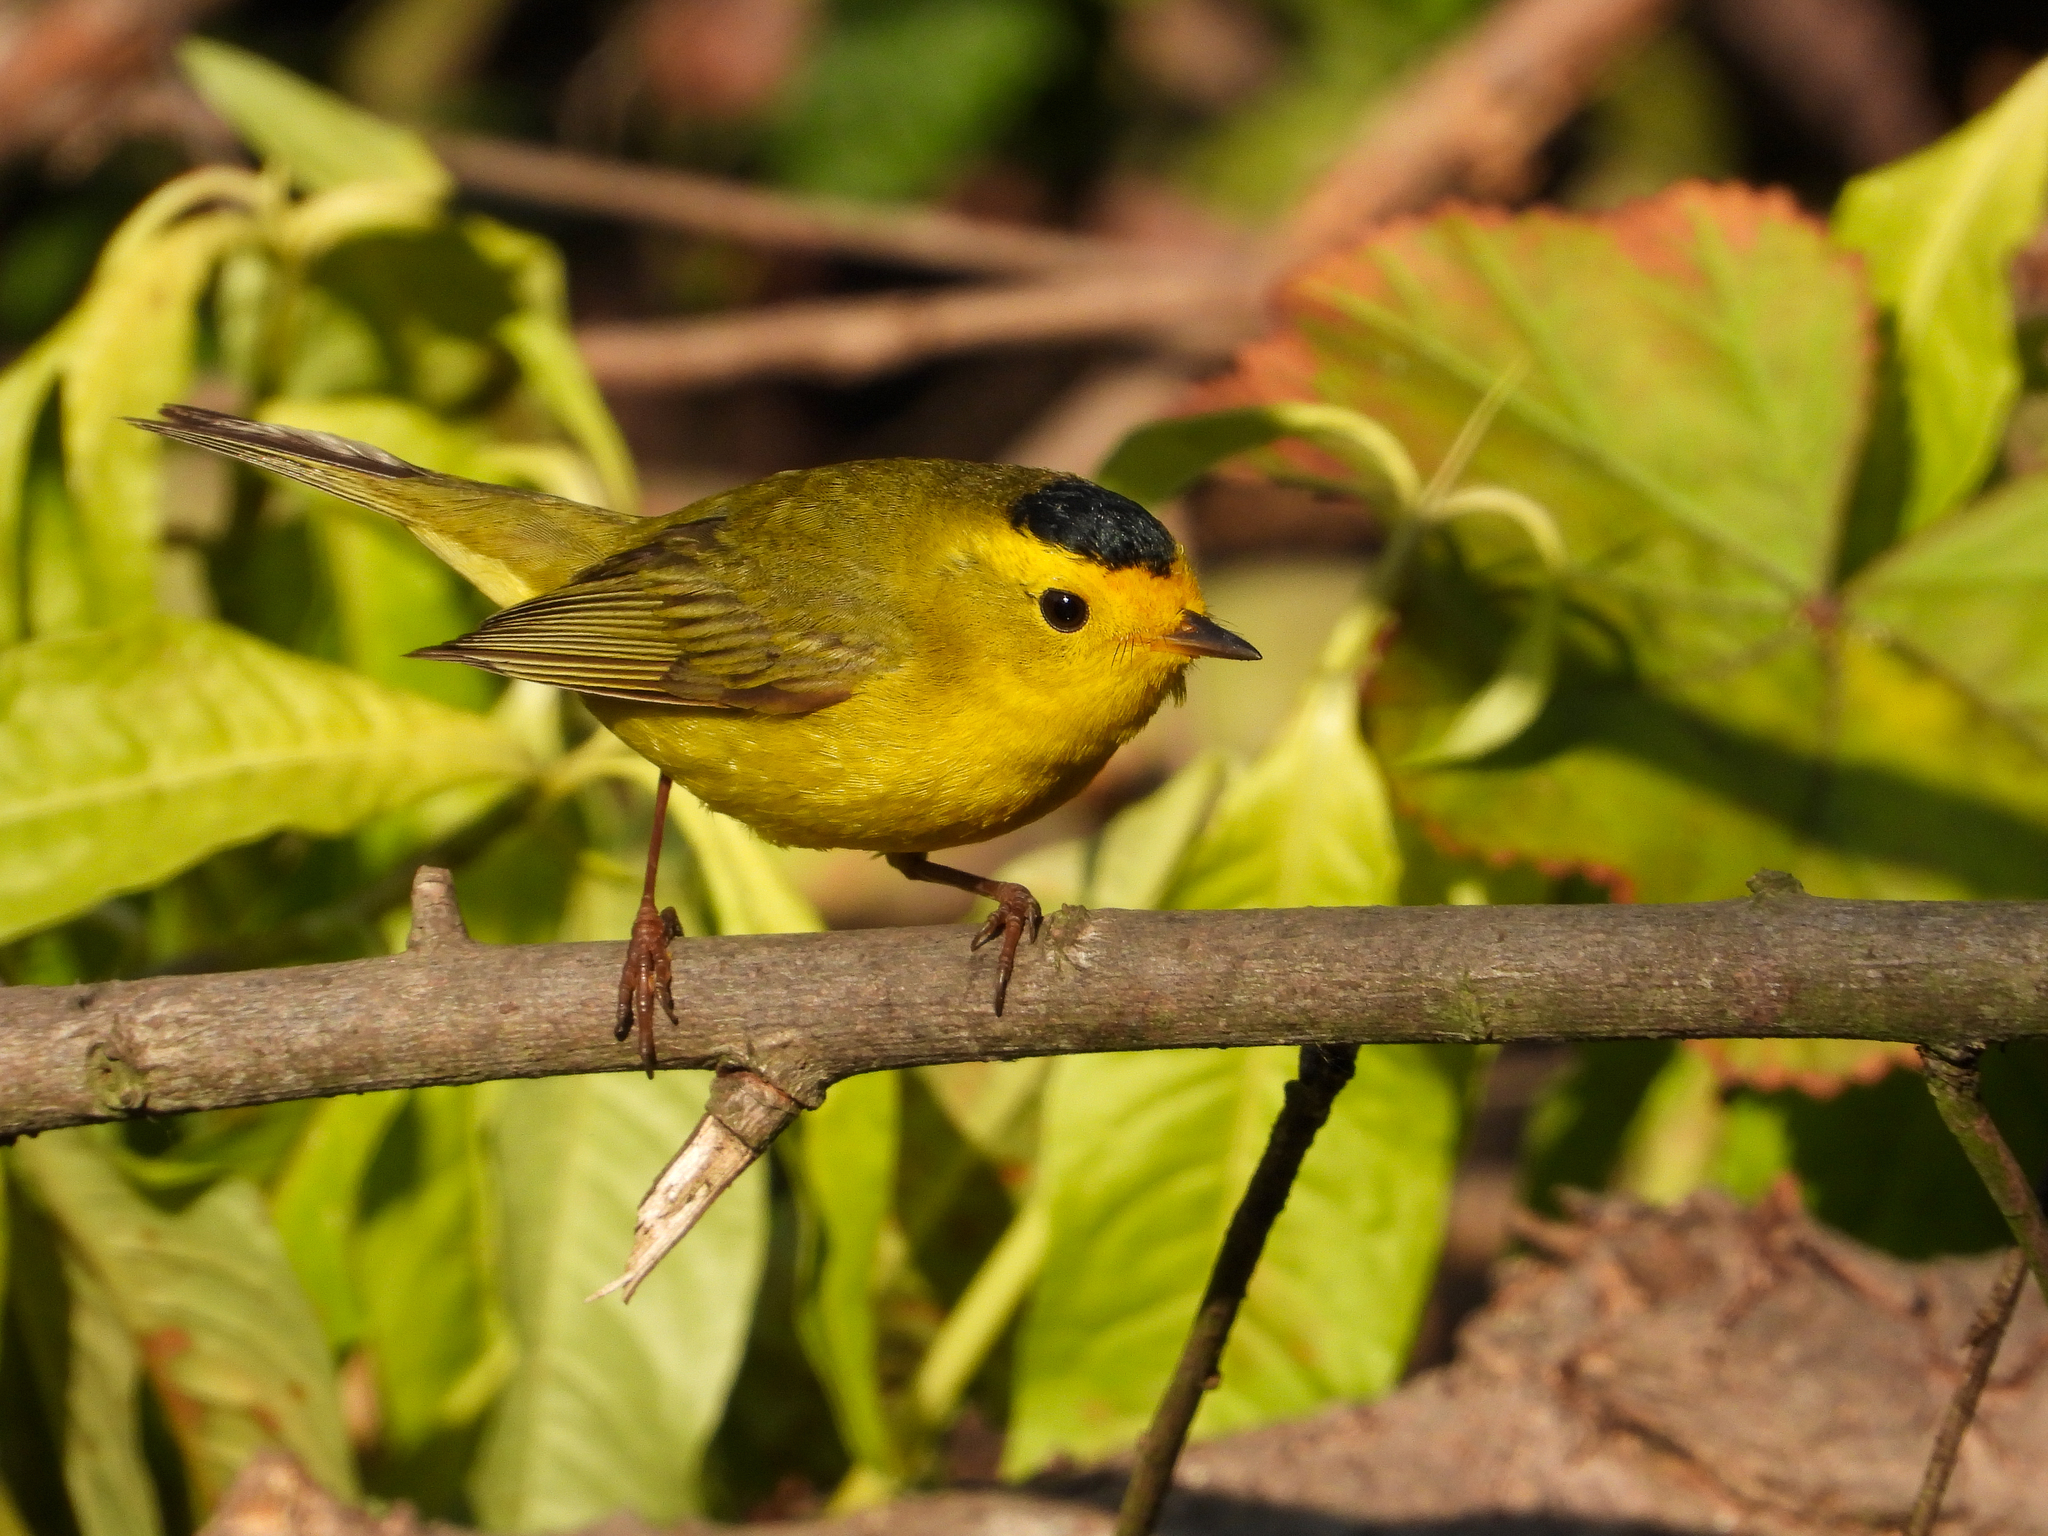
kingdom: Animalia
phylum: Chordata
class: Aves
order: Passeriformes
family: Parulidae
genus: Cardellina
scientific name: Cardellina pusilla
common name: Wilson's warbler
